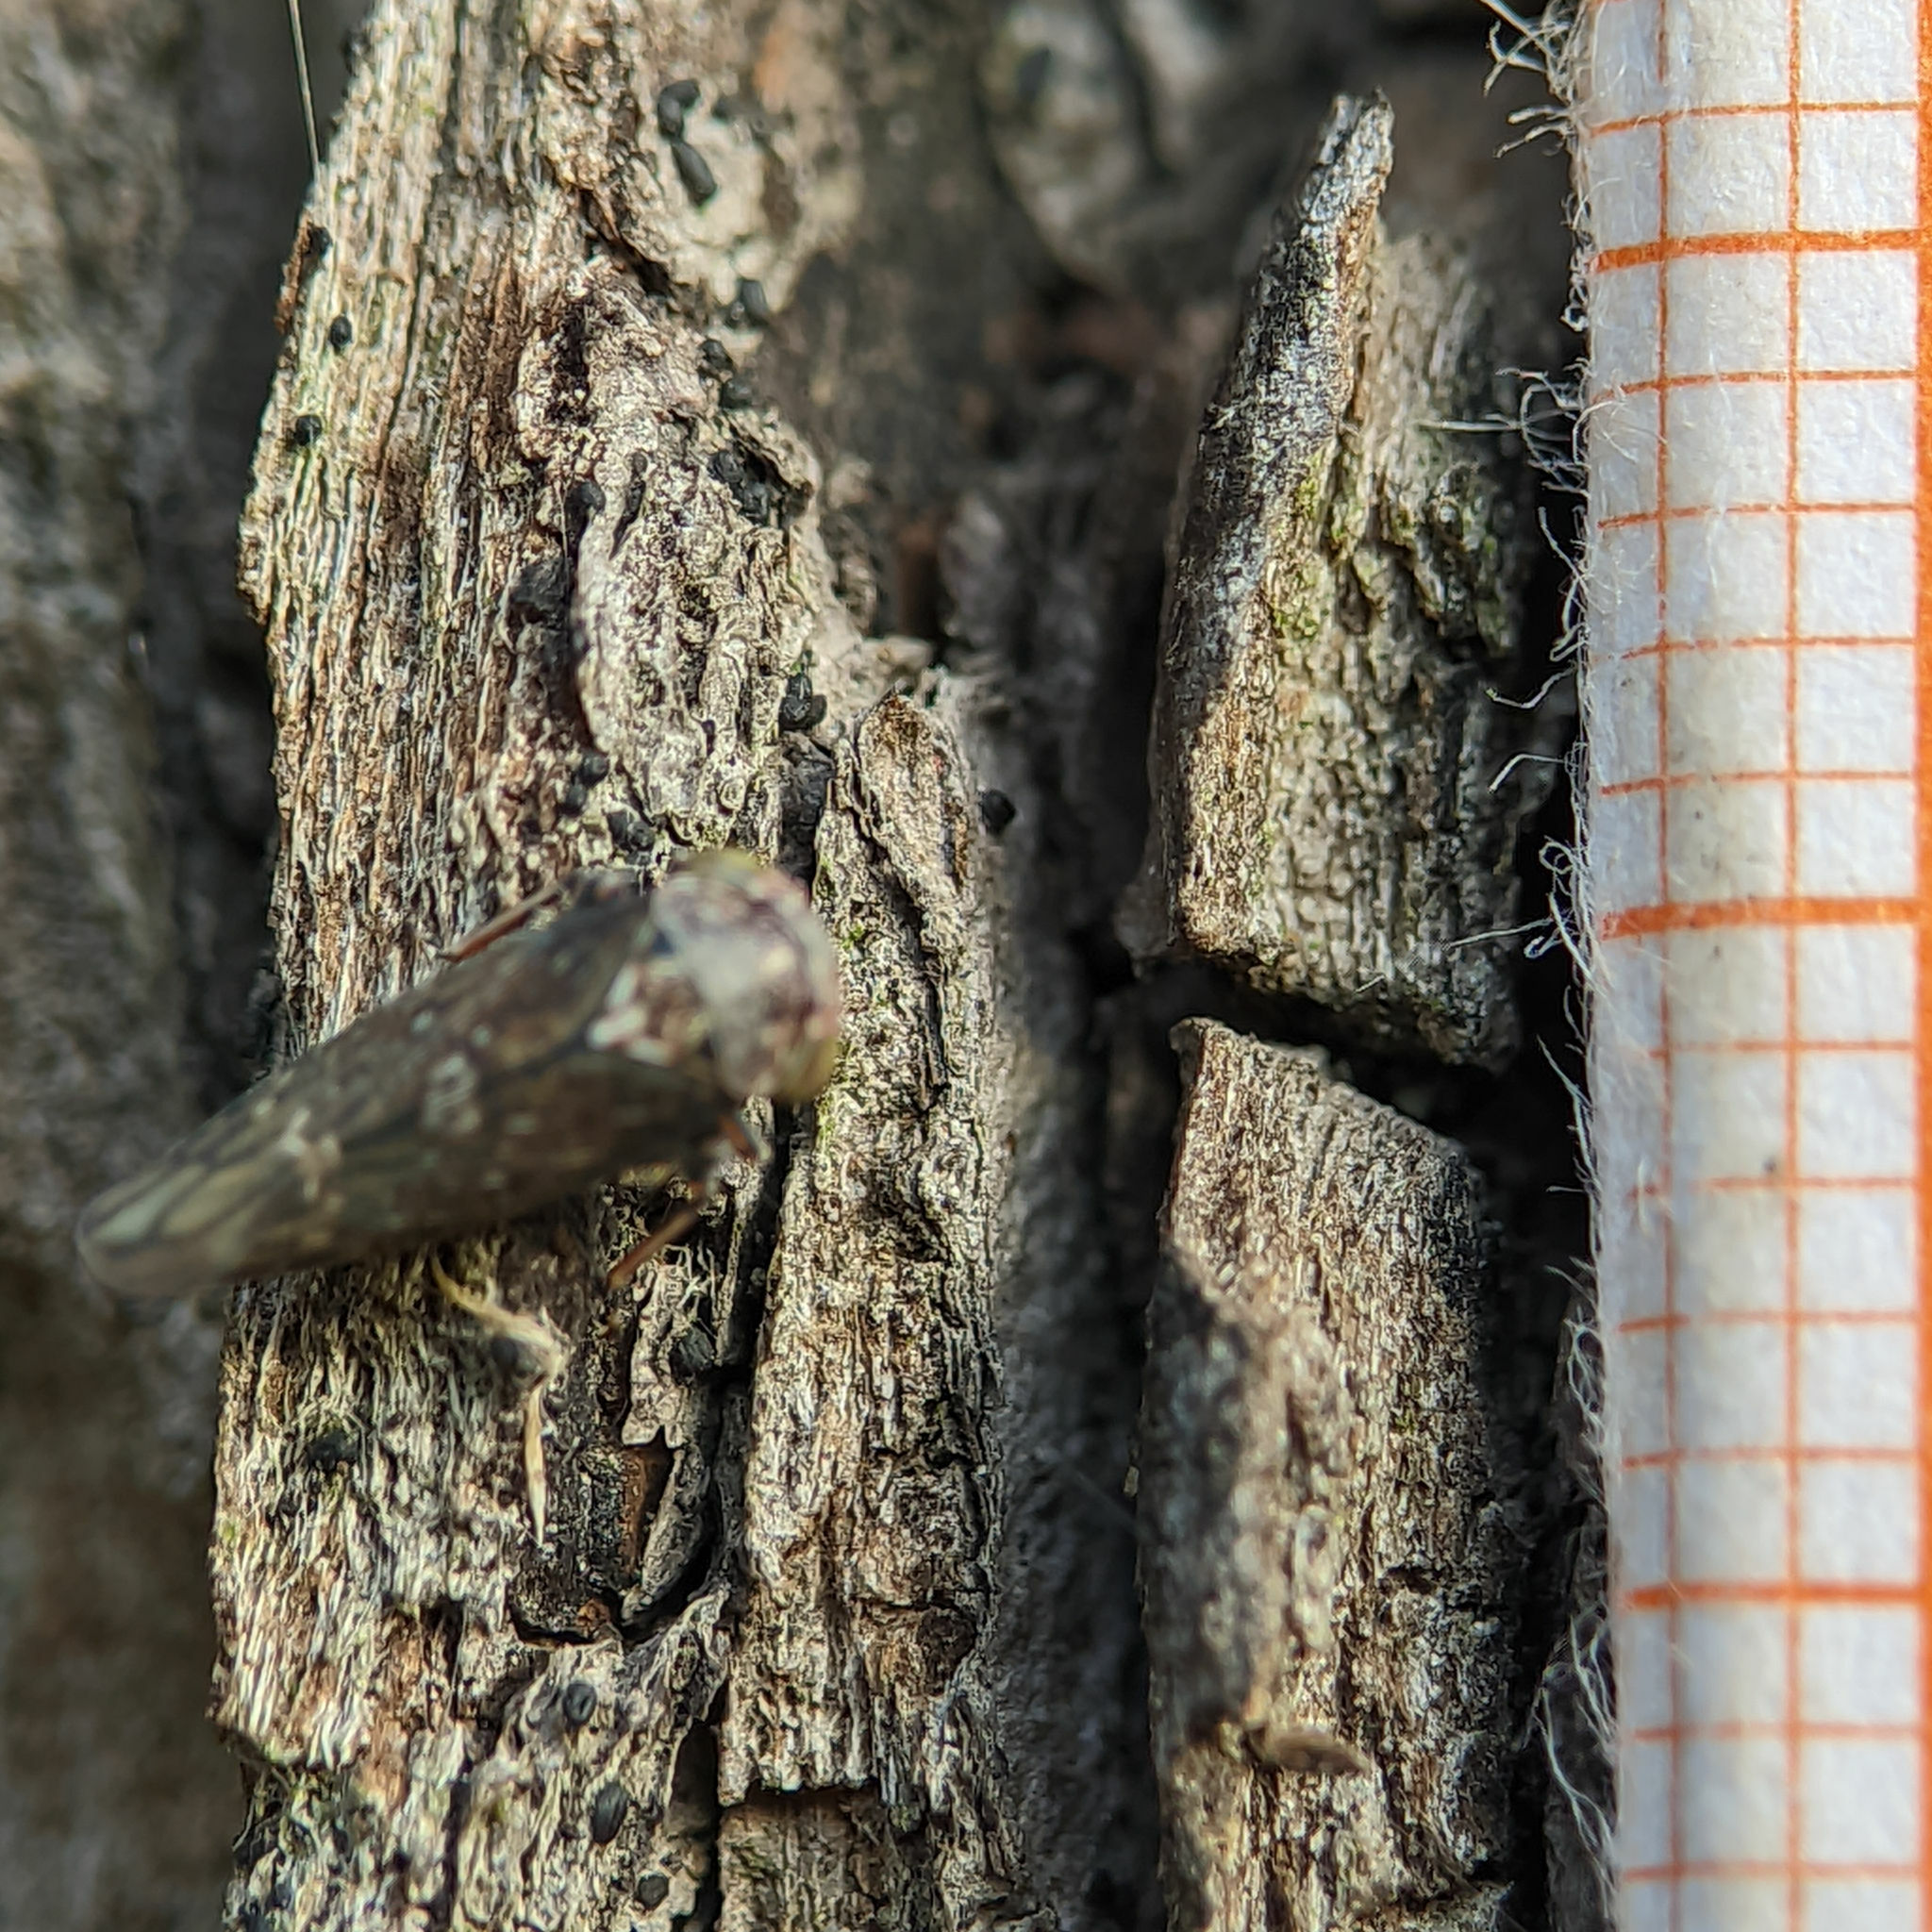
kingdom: Animalia
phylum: Arthropoda
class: Insecta
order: Hemiptera
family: Cicadellidae
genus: Acericerus
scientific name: Acericerus heydenii
